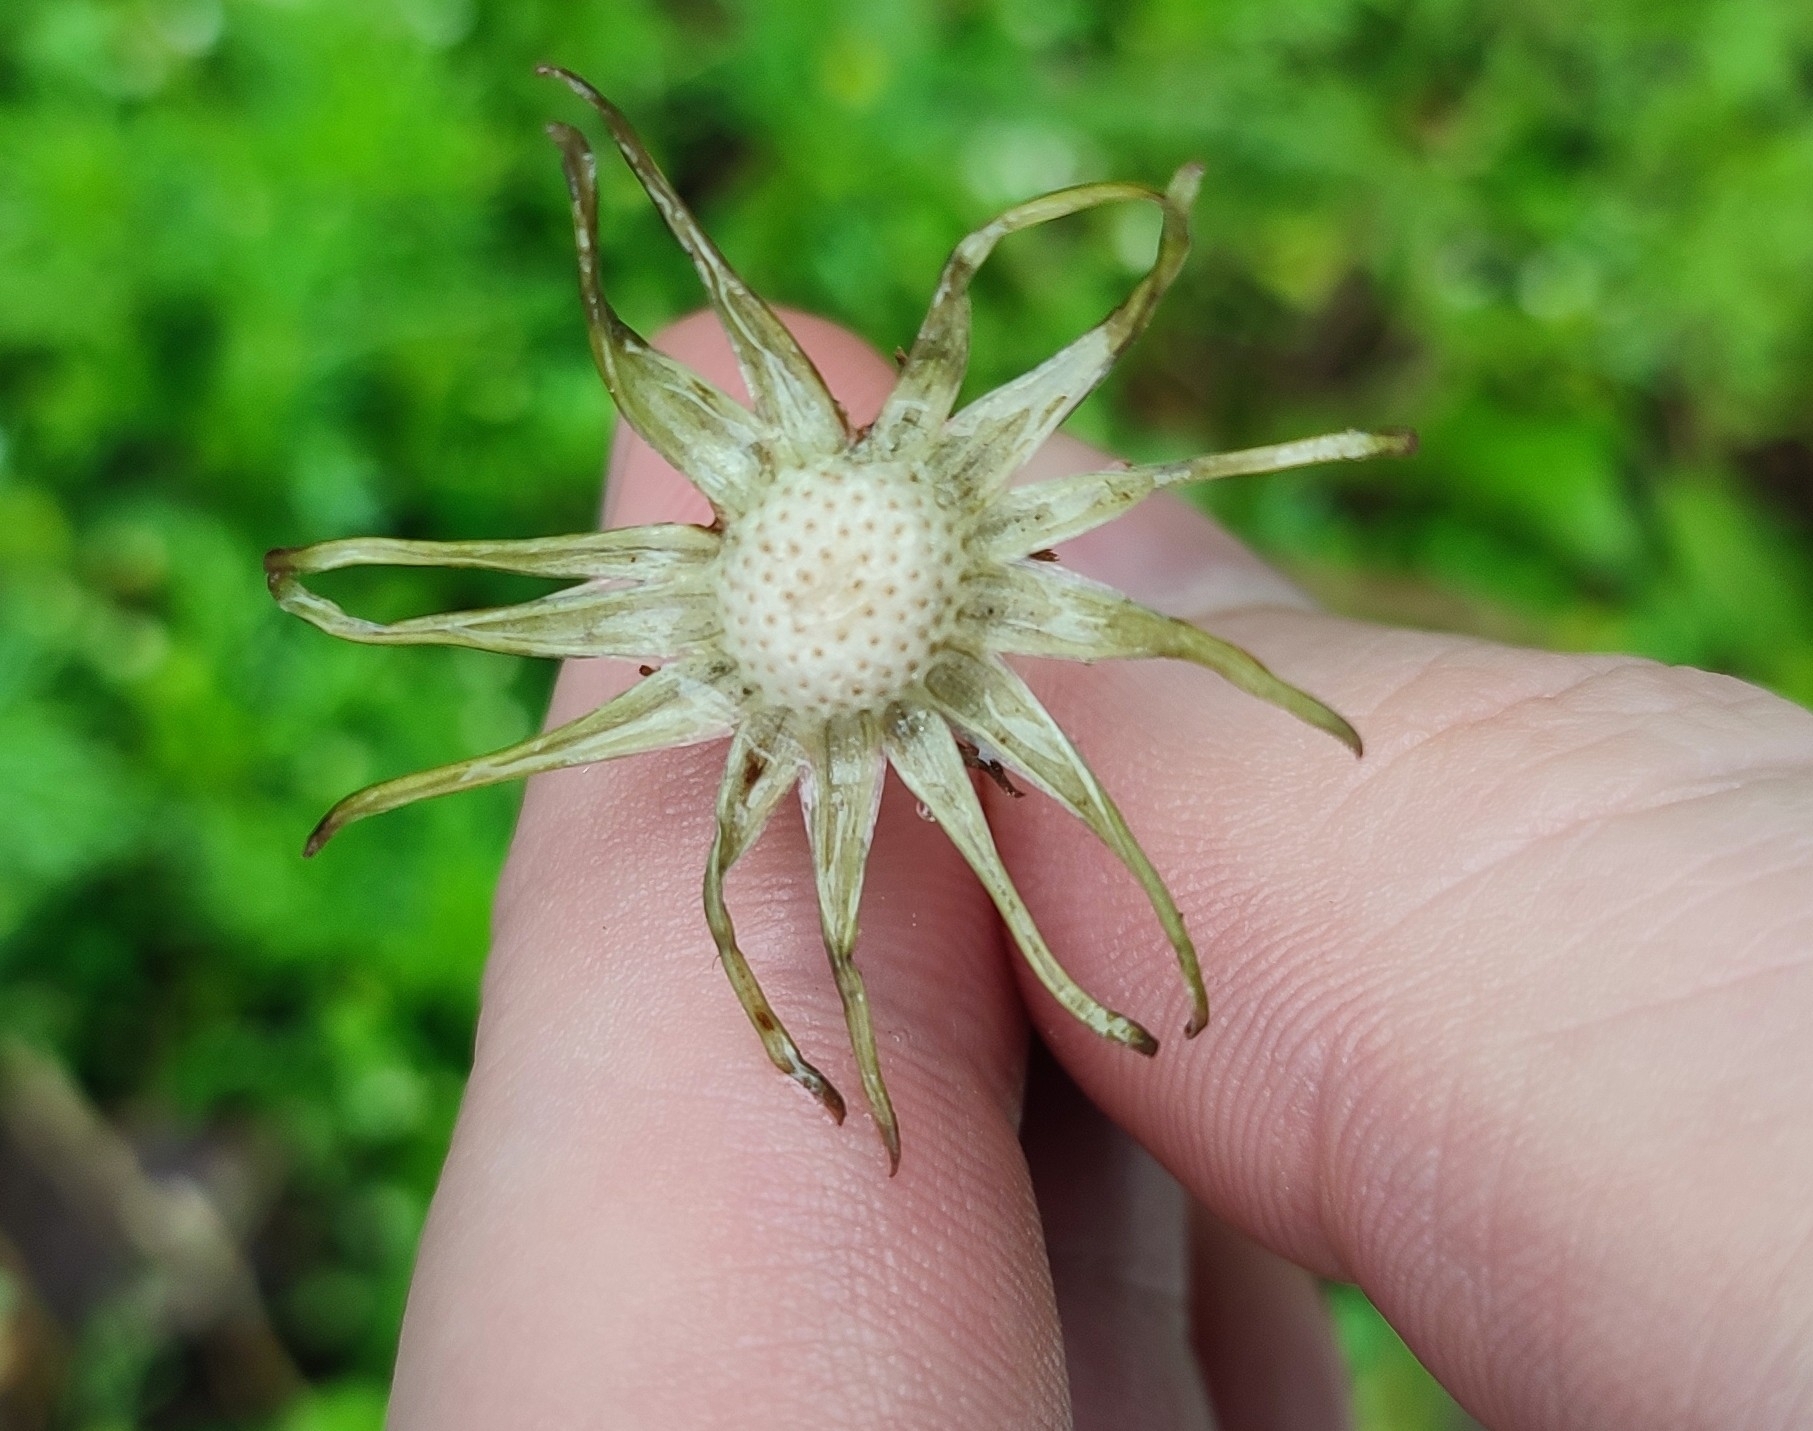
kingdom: Plantae
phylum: Tracheophyta
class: Magnoliopsida
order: Asterales
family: Asteraceae
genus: Taraxacum
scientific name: Taraxacum officinale
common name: Common dandelion
